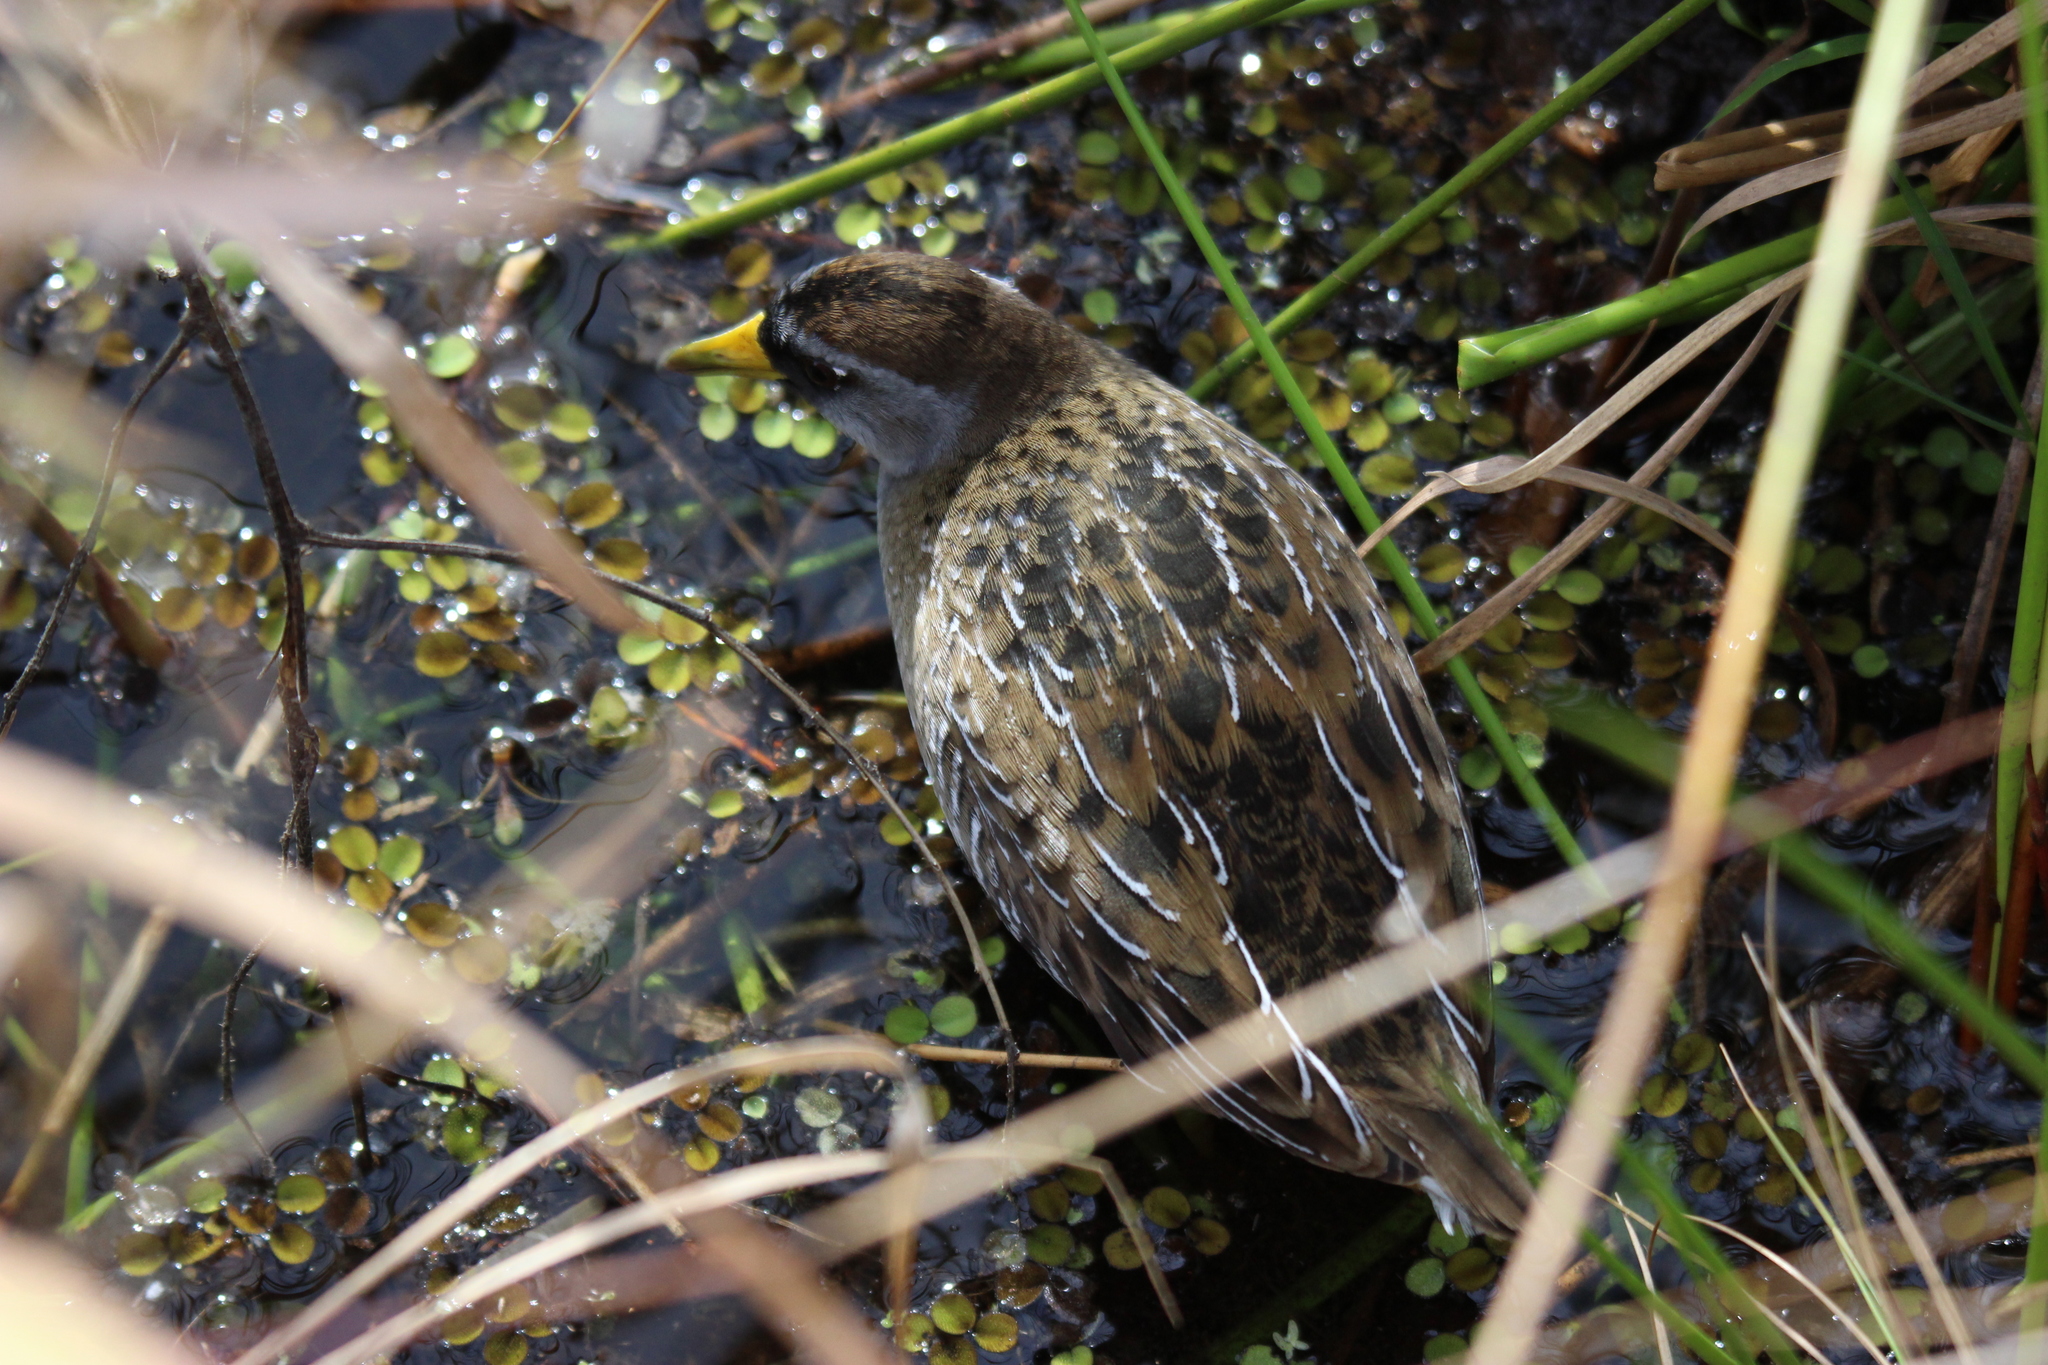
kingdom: Animalia
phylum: Chordata
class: Aves
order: Gruiformes
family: Rallidae
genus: Porzana
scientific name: Porzana carolina
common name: Sora
